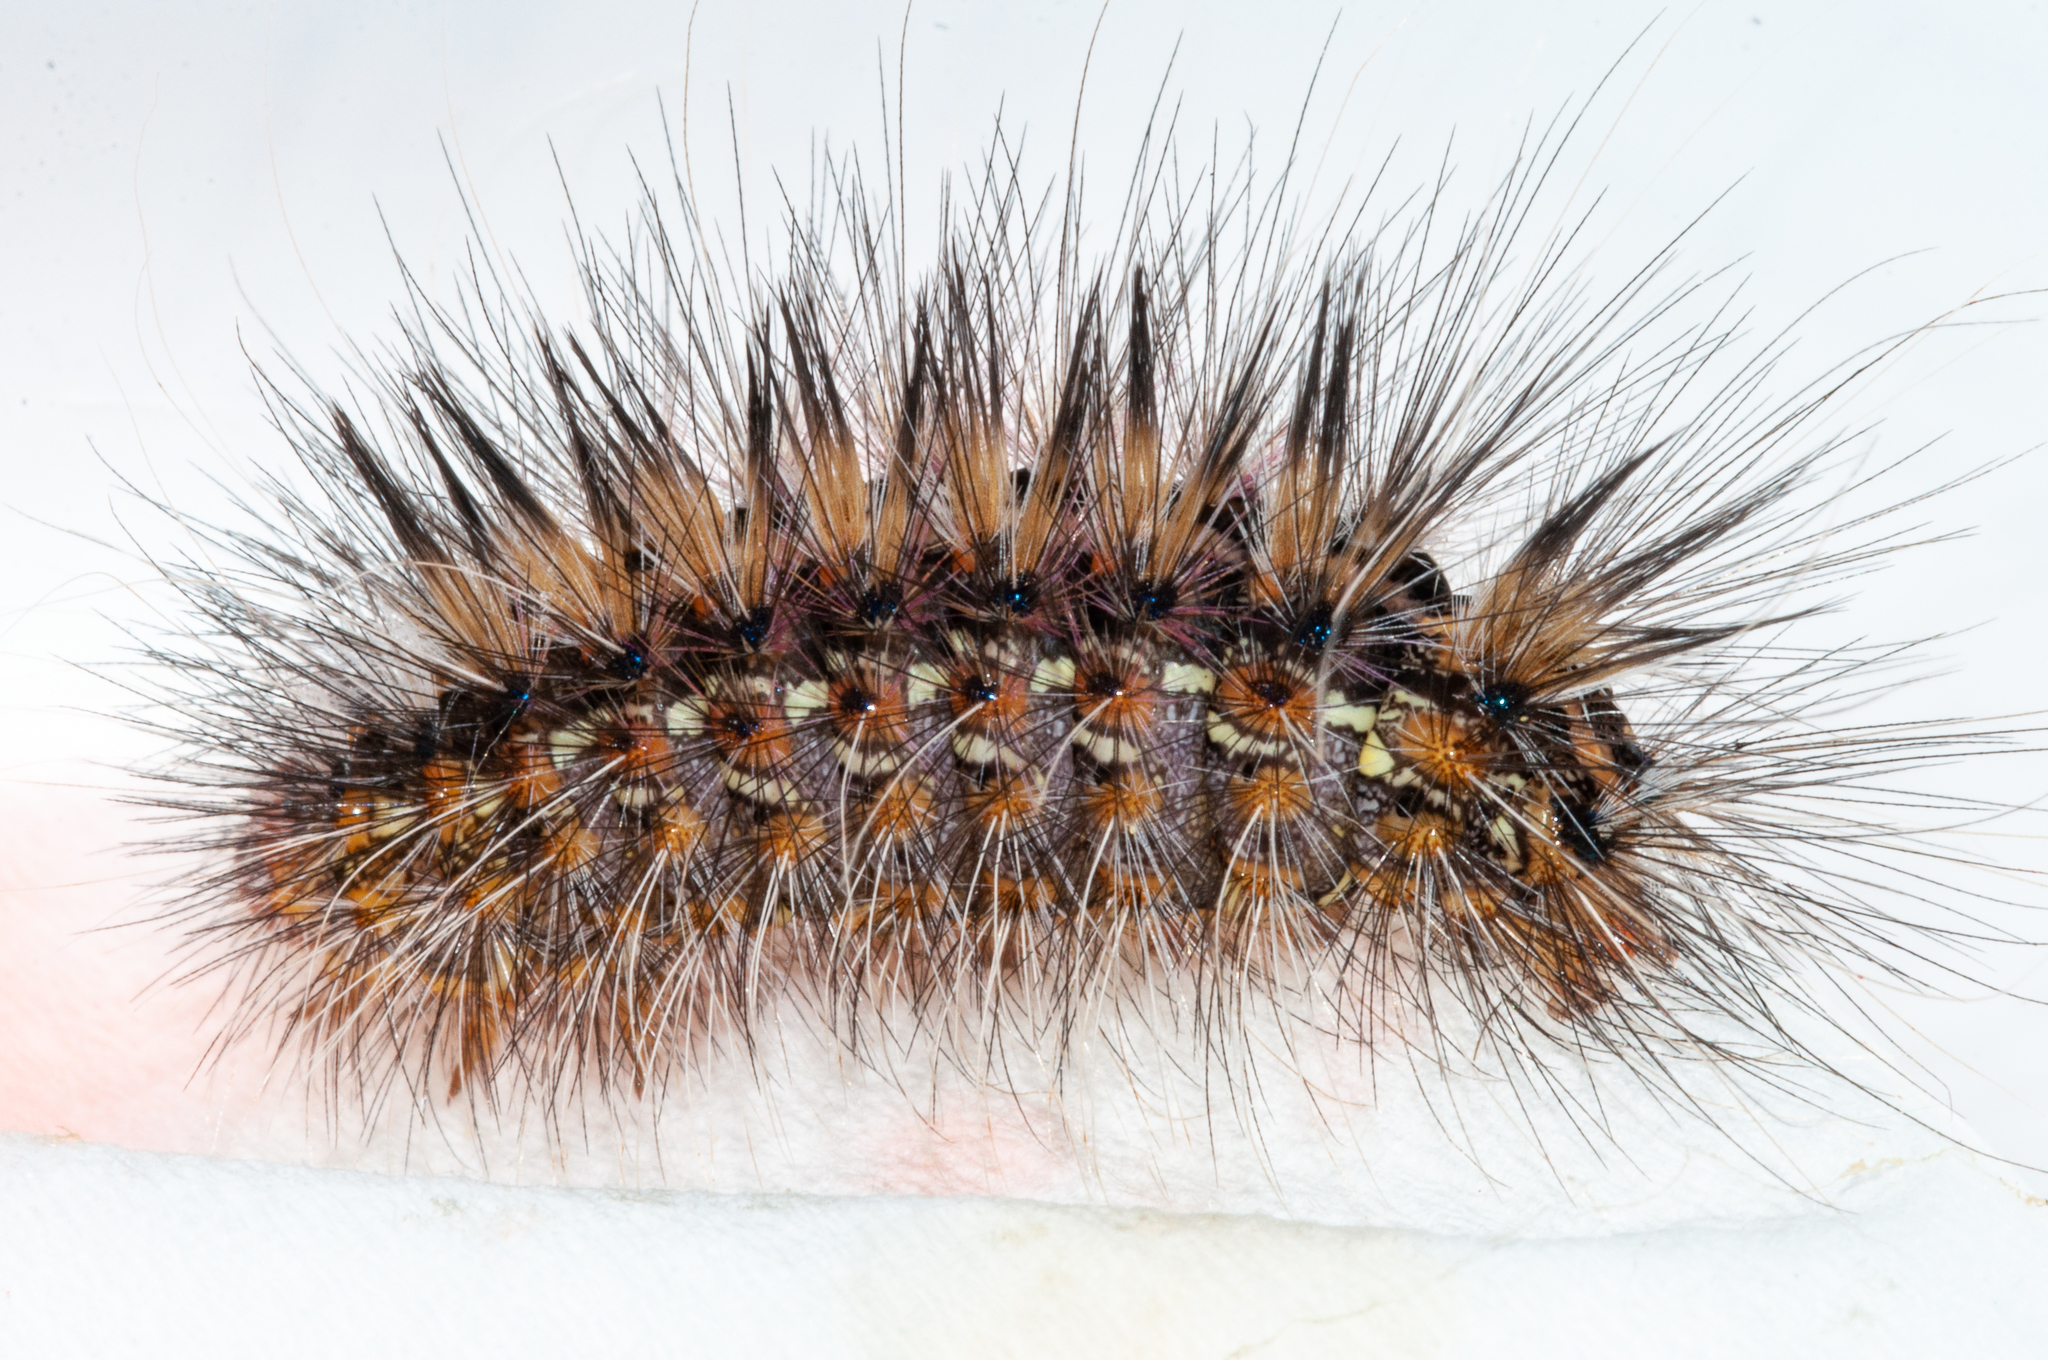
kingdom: Animalia
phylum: Arthropoda
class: Insecta
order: Lepidoptera
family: Erebidae
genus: Paralacydes
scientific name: Paralacydes vocula
